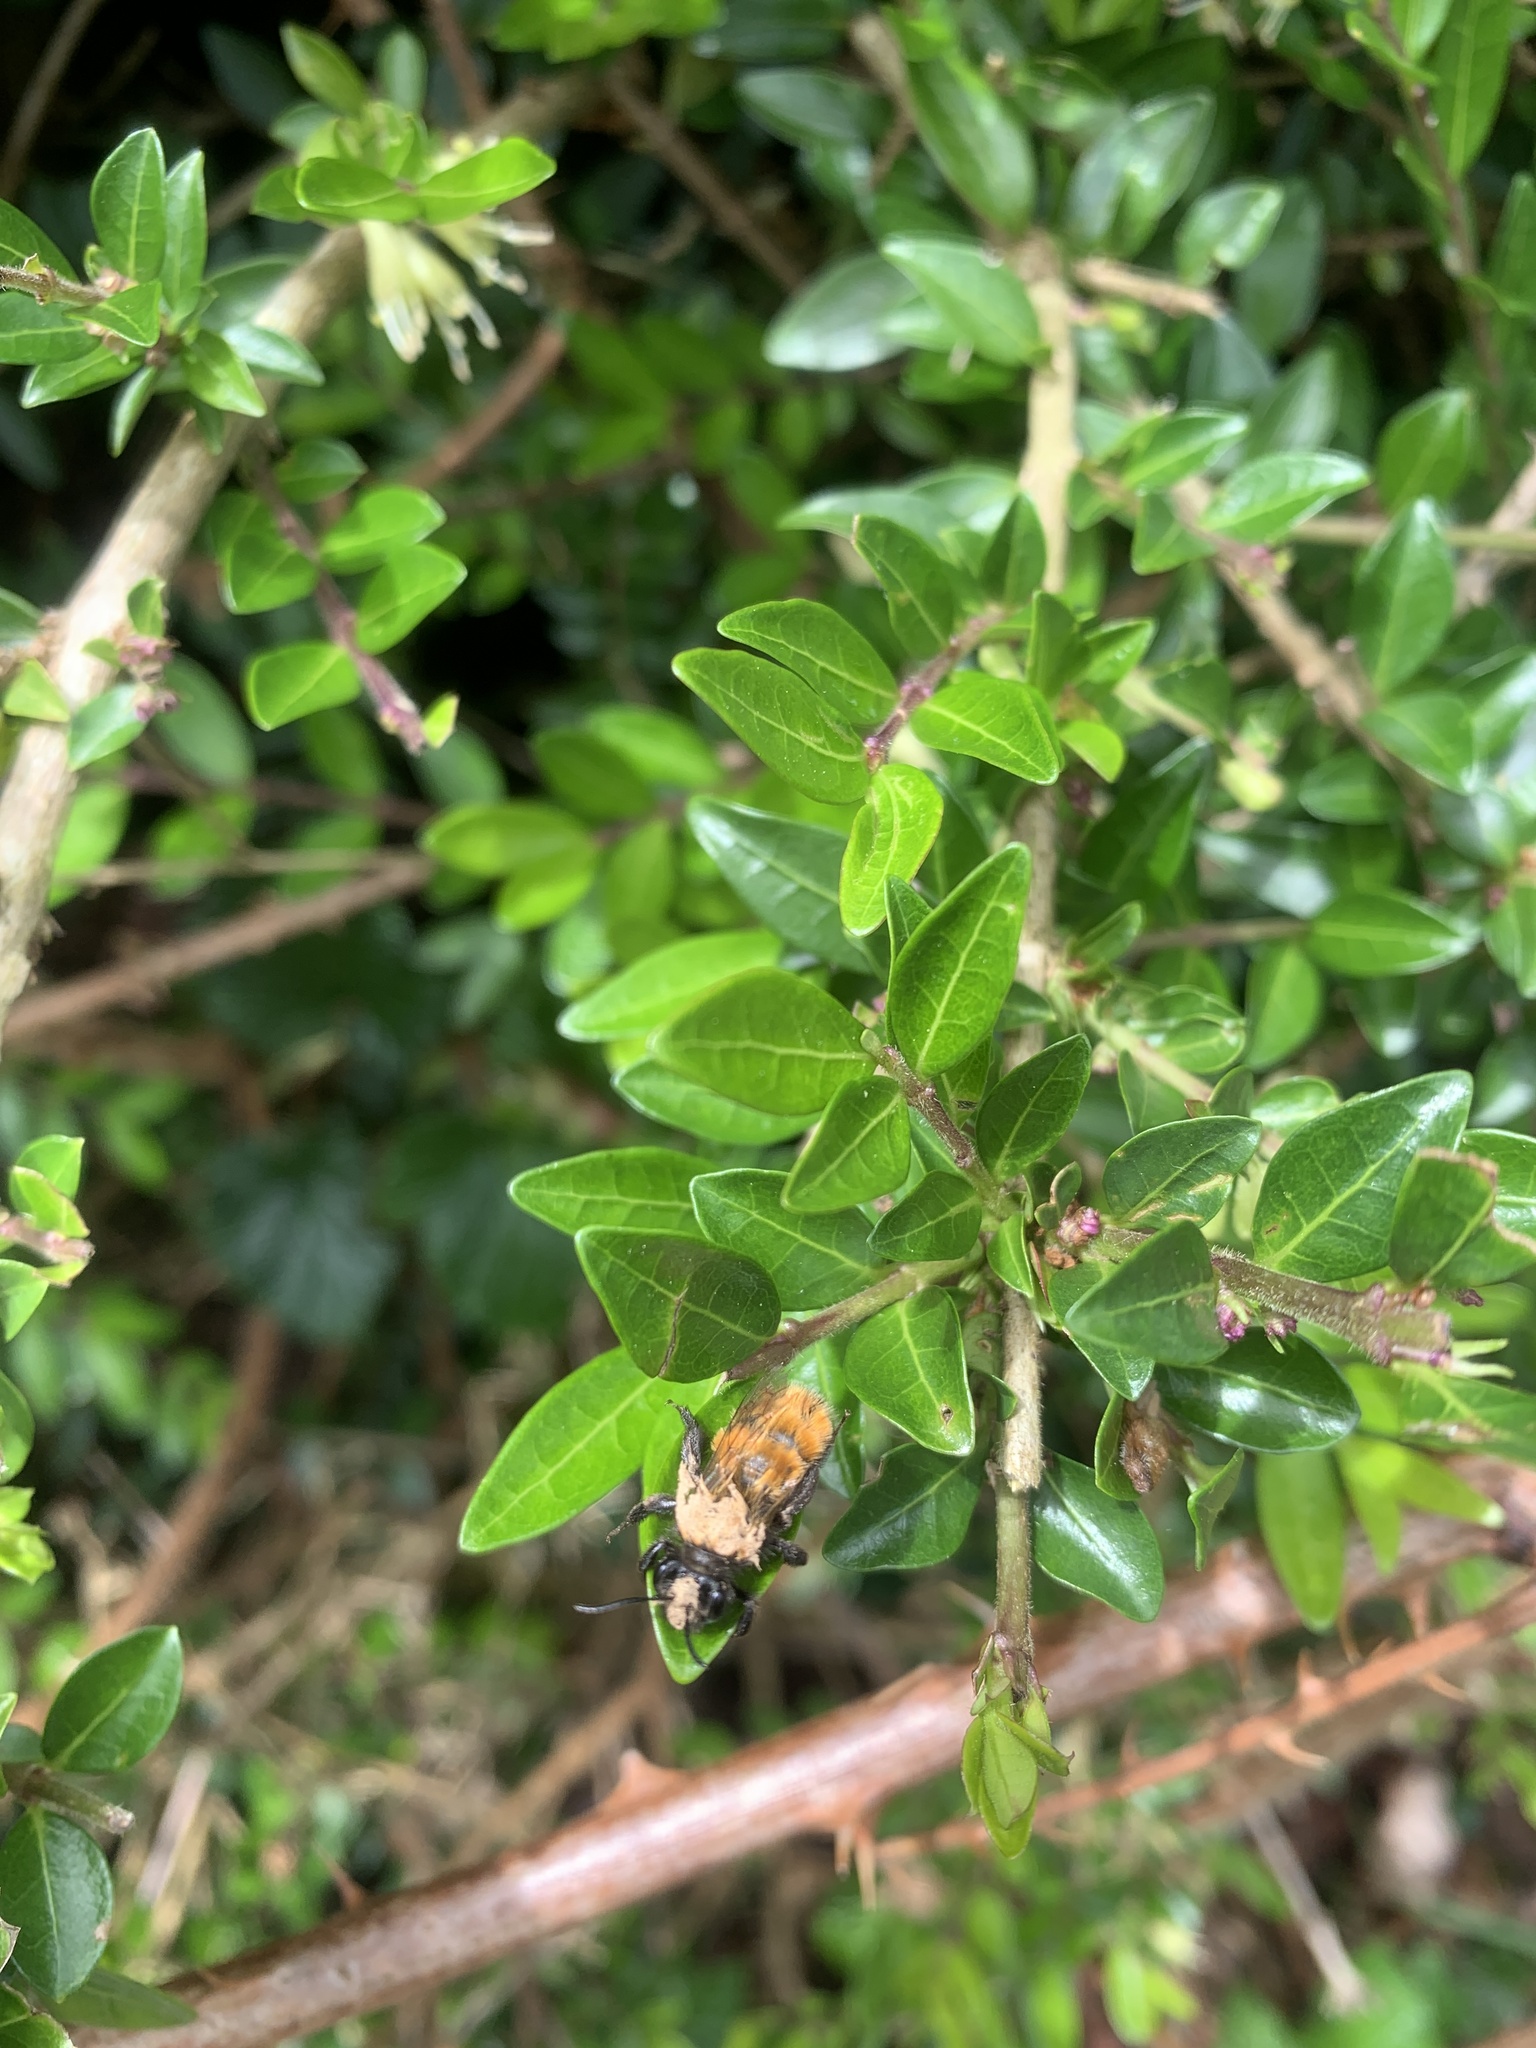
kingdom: Plantae
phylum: Tracheophyta
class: Magnoliopsida
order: Dipsacales
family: Caprifoliaceae
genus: Lonicera
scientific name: Lonicera ligustrina
